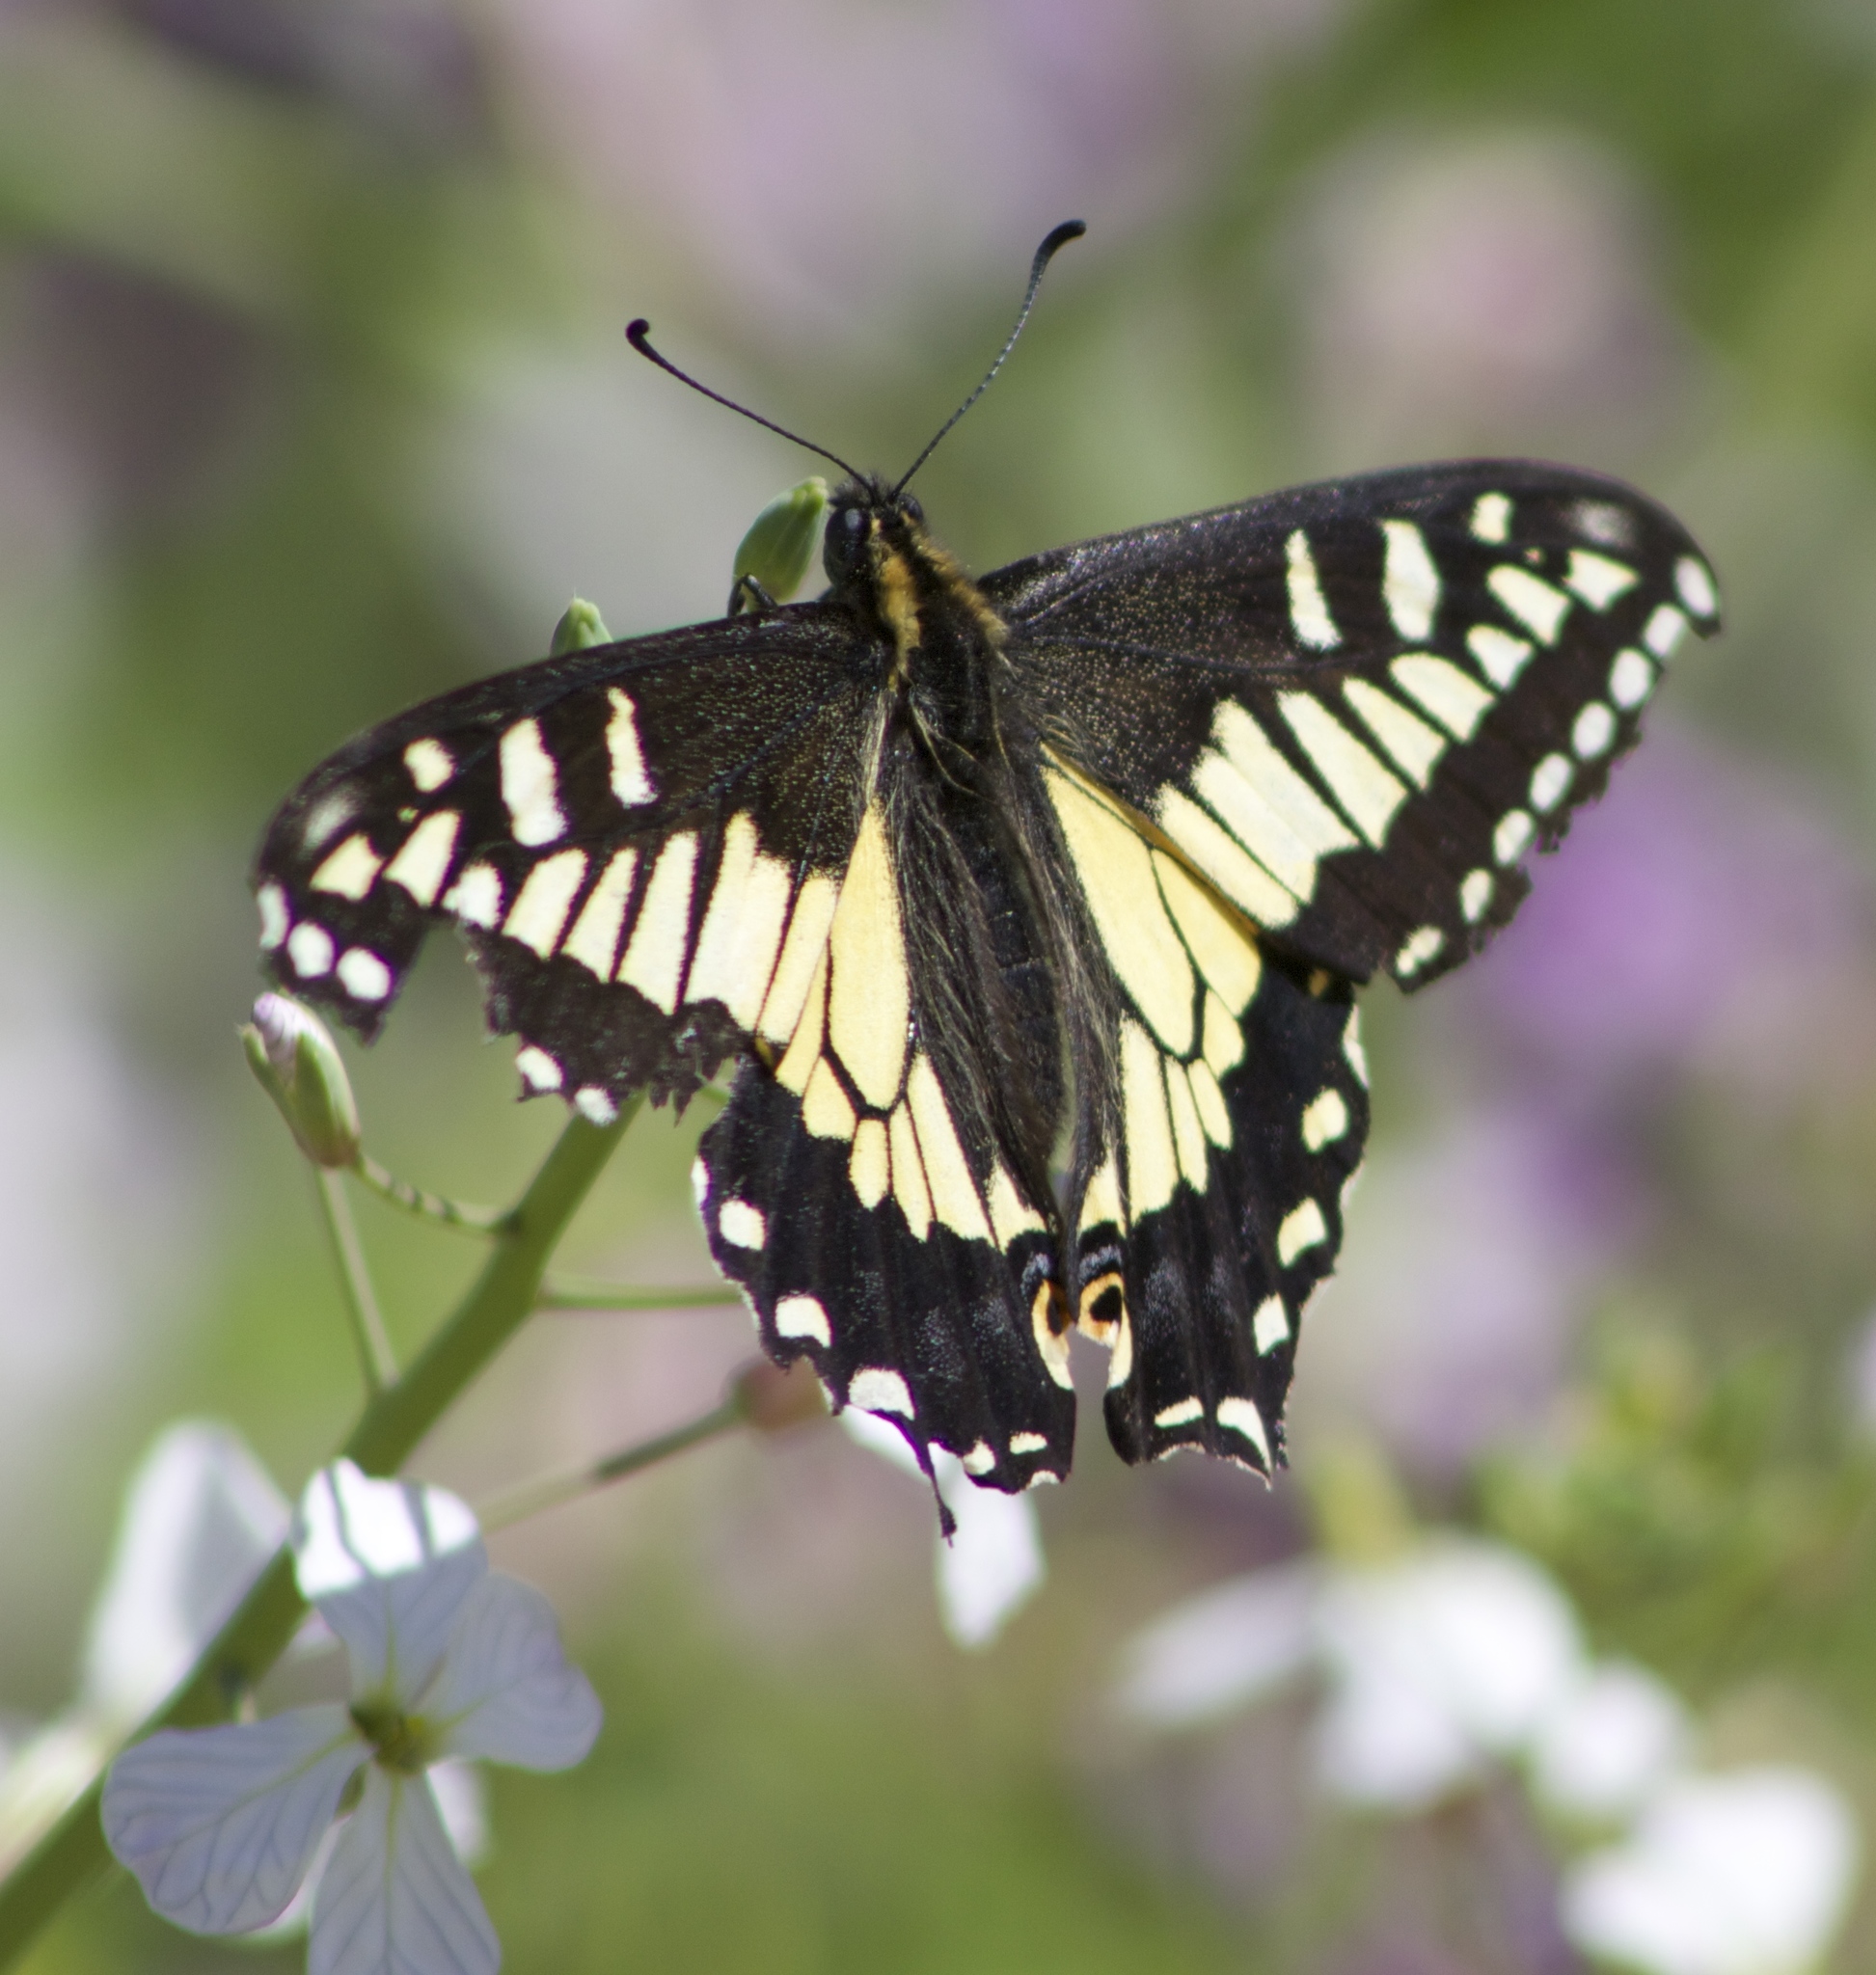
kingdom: Animalia
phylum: Arthropoda
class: Insecta
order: Lepidoptera
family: Papilionidae
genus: Papilio
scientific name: Papilio zelicaon
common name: Anise swallowtail
